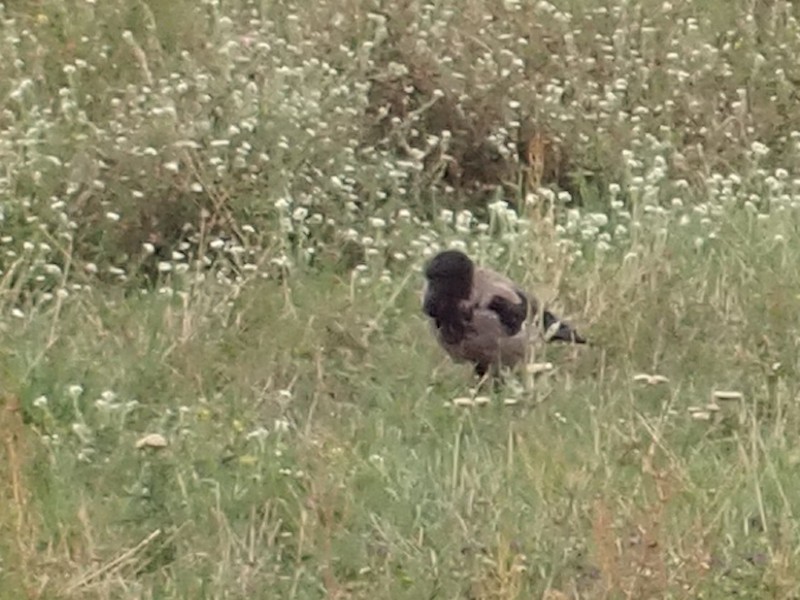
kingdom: Animalia
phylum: Chordata
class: Aves
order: Passeriformes
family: Corvidae
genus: Corvus
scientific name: Corvus cornix
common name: Hooded crow
